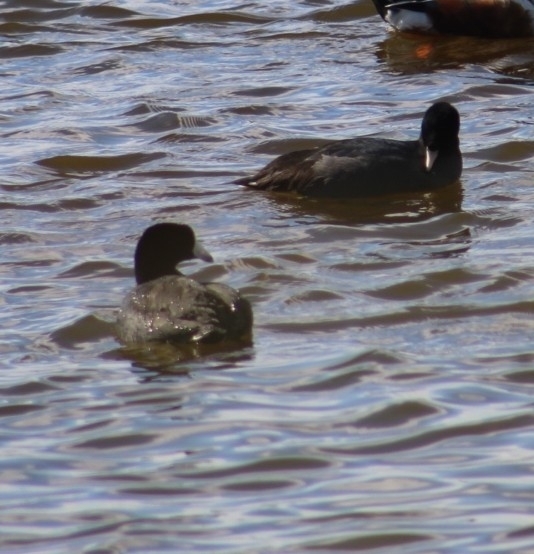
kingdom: Animalia
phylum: Chordata
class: Aves
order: Gruiformes
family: Rallidae
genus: Fulica
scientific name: Fulica americana
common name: American coot
